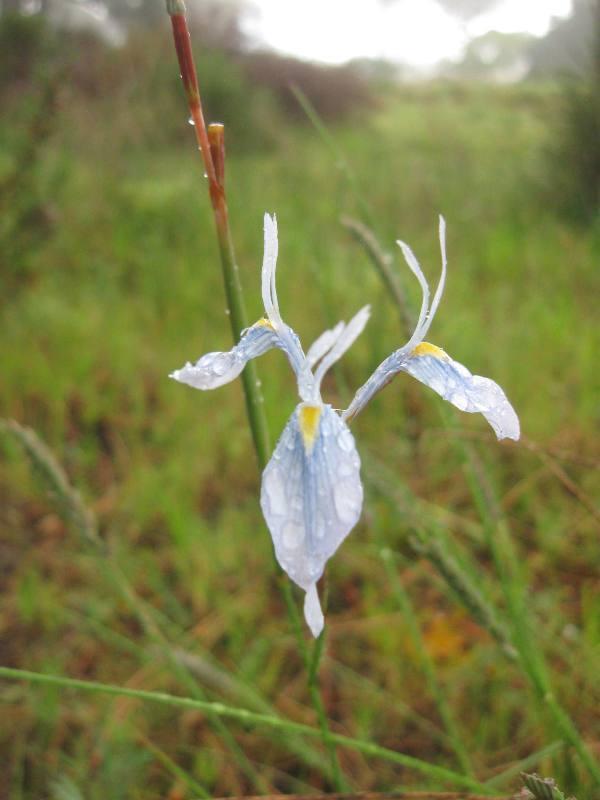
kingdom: Plantae
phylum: Tracheophyta
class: Liliopsida
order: Asparagales
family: Iridaceae
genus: Moraea
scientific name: Moraea tripetala
